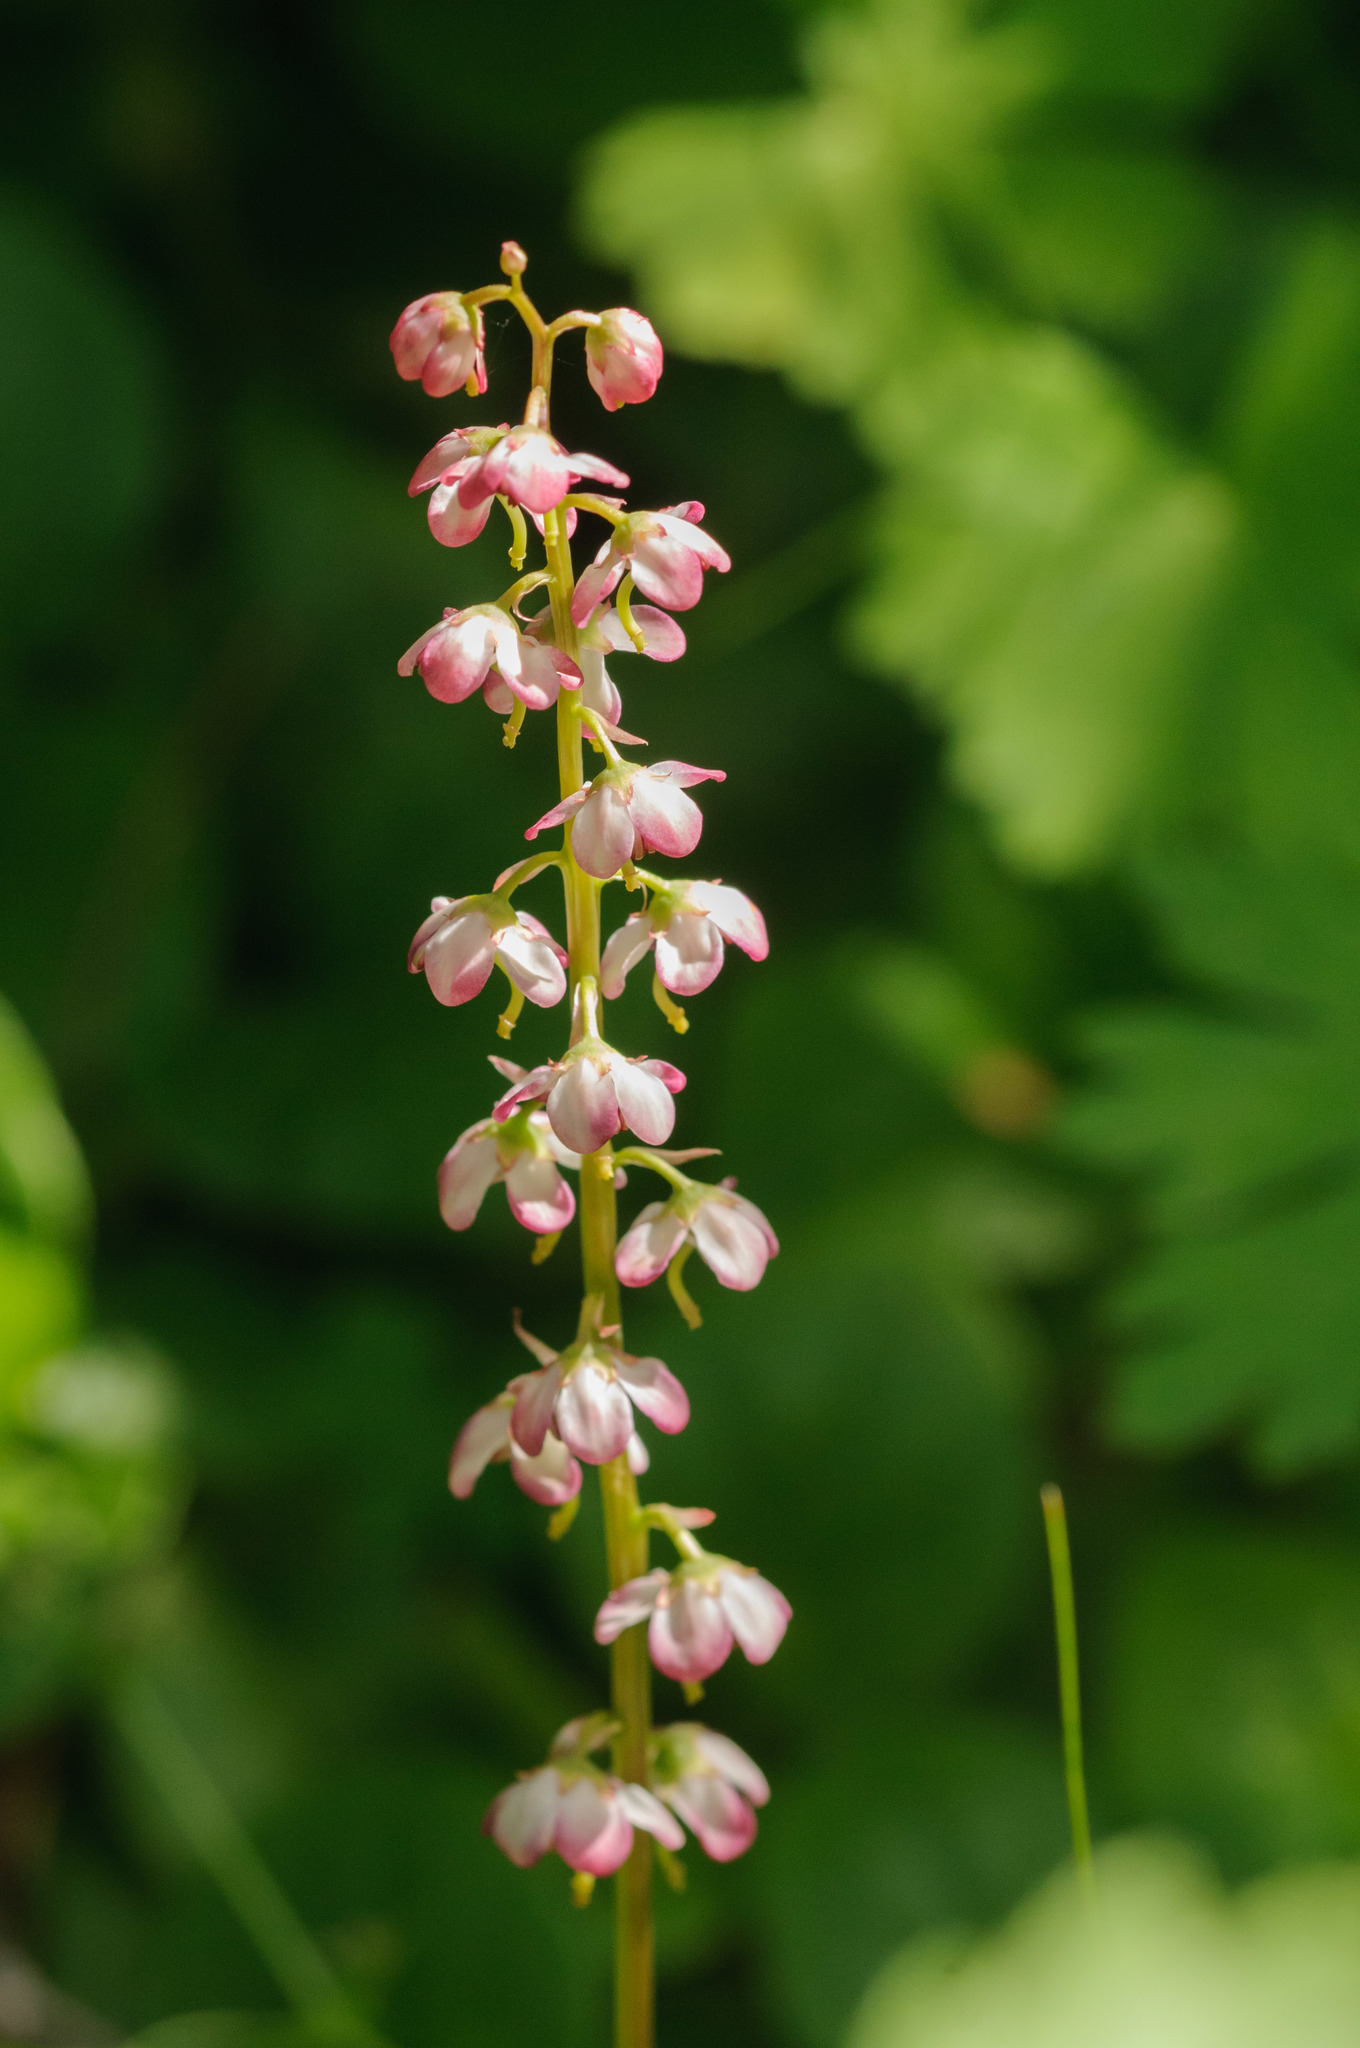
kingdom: Plantae
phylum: Tracheophyta
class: Magnoliopsida
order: Ericales
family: Ericaceae
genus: Pyrola
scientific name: Pyrola asarifolia
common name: Bog wintergreen
